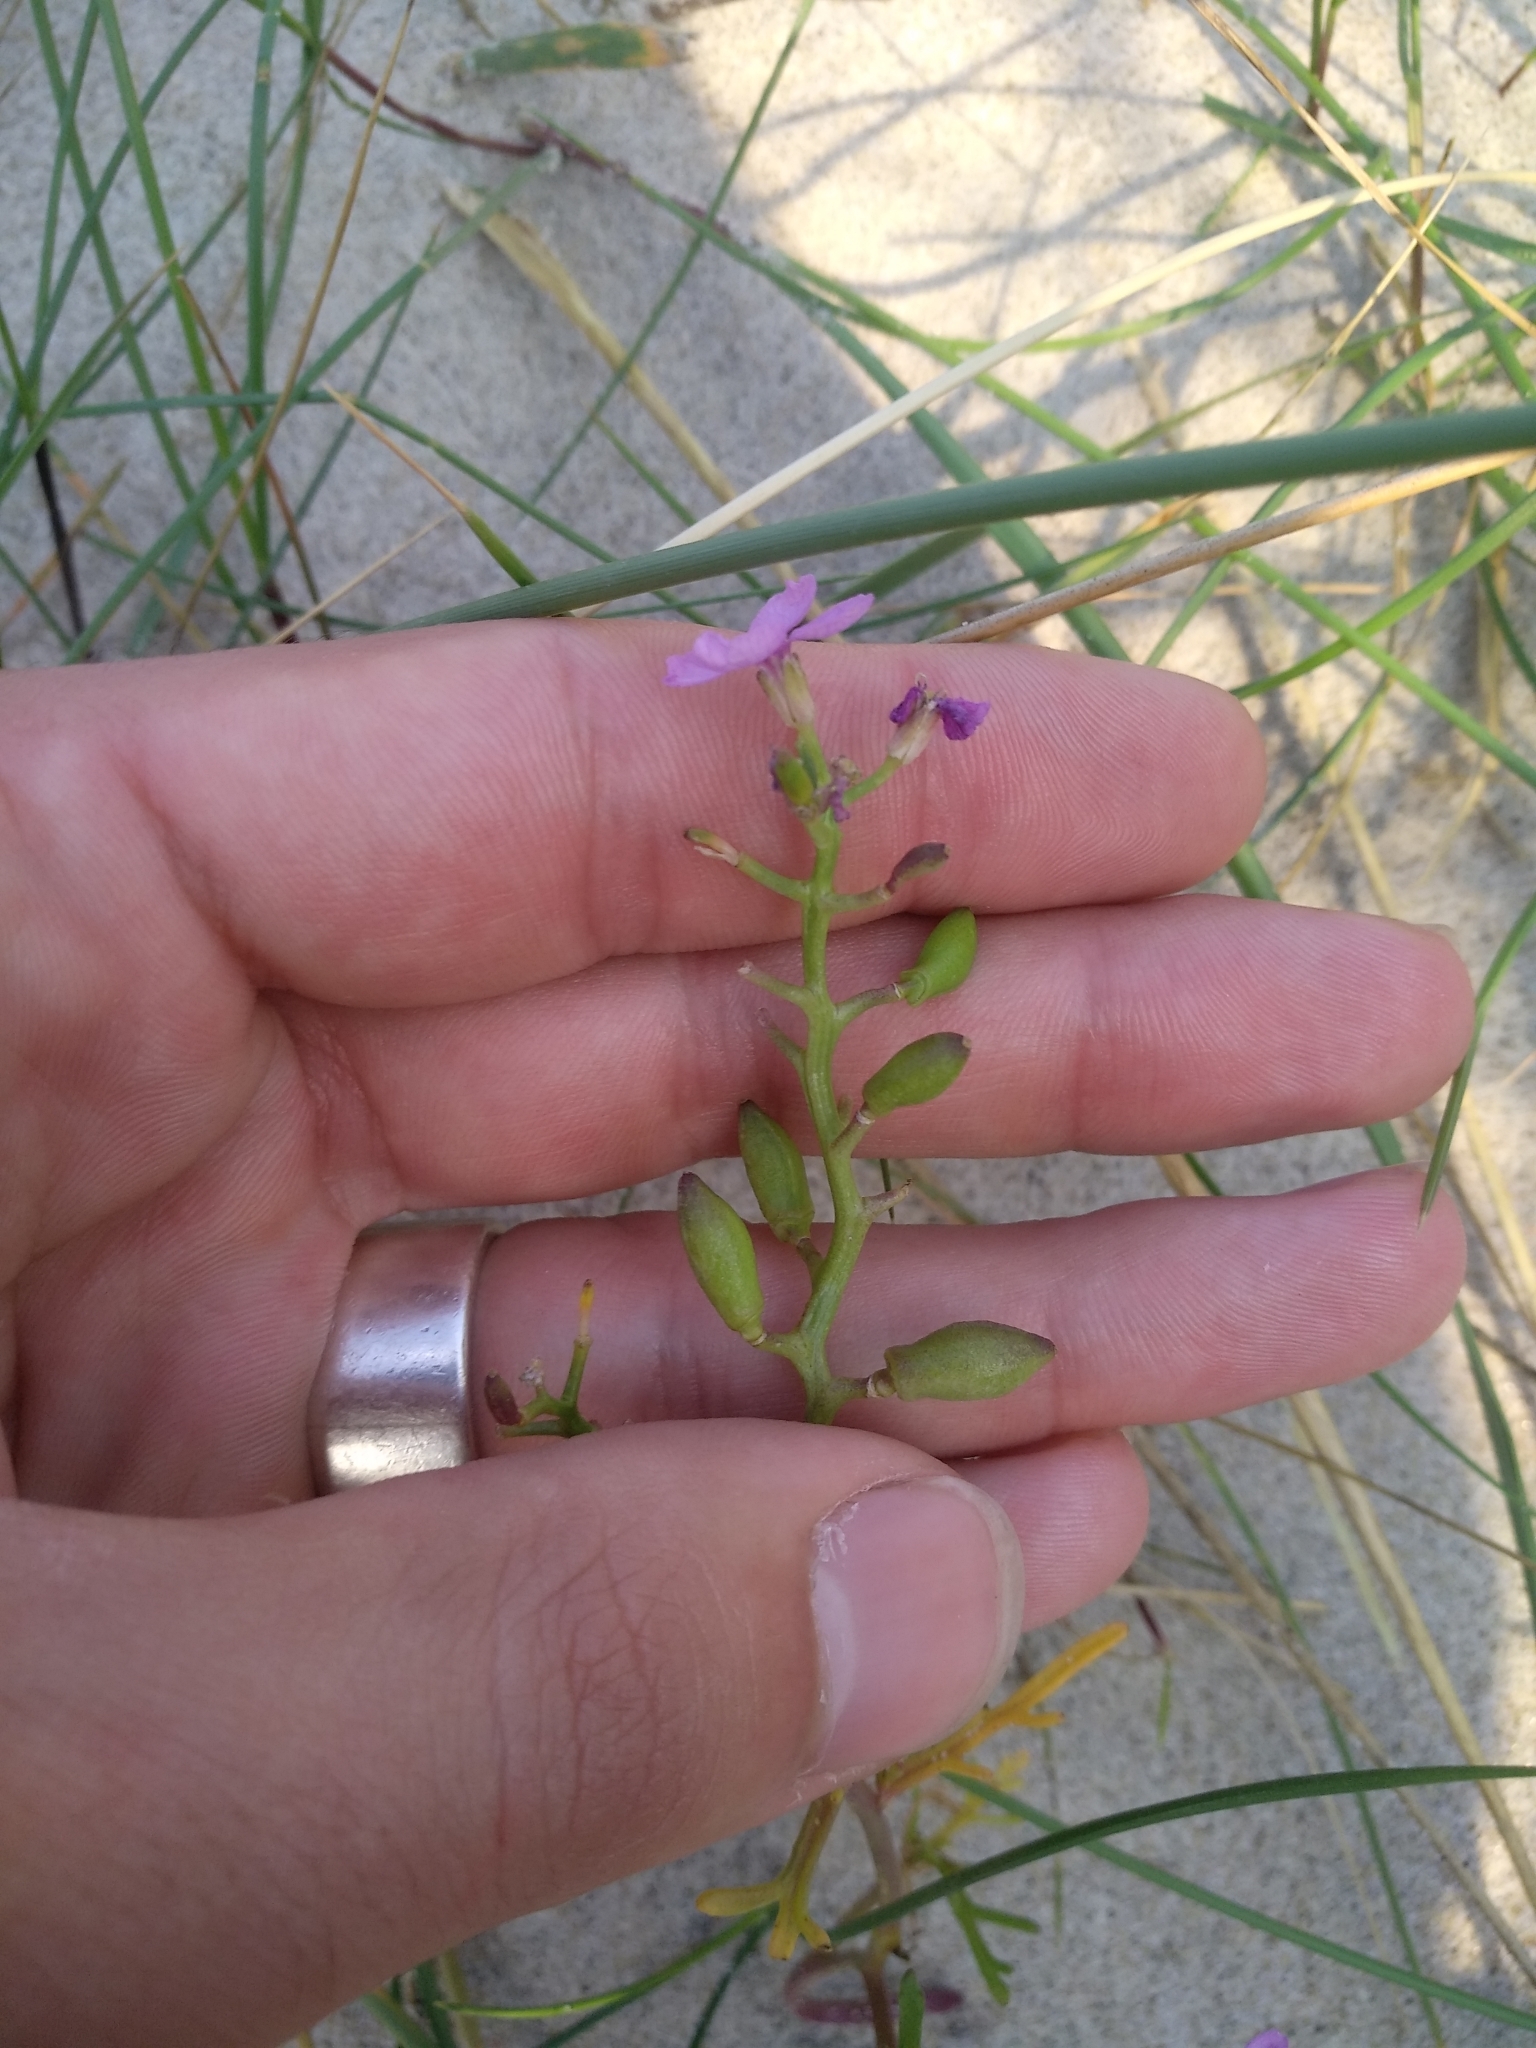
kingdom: Plantae
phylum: Tracheophyta
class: Magnoliopsida
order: Brassicales
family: Brassicaceae
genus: Cakile
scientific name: Cakile maritima
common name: Sea rocket
